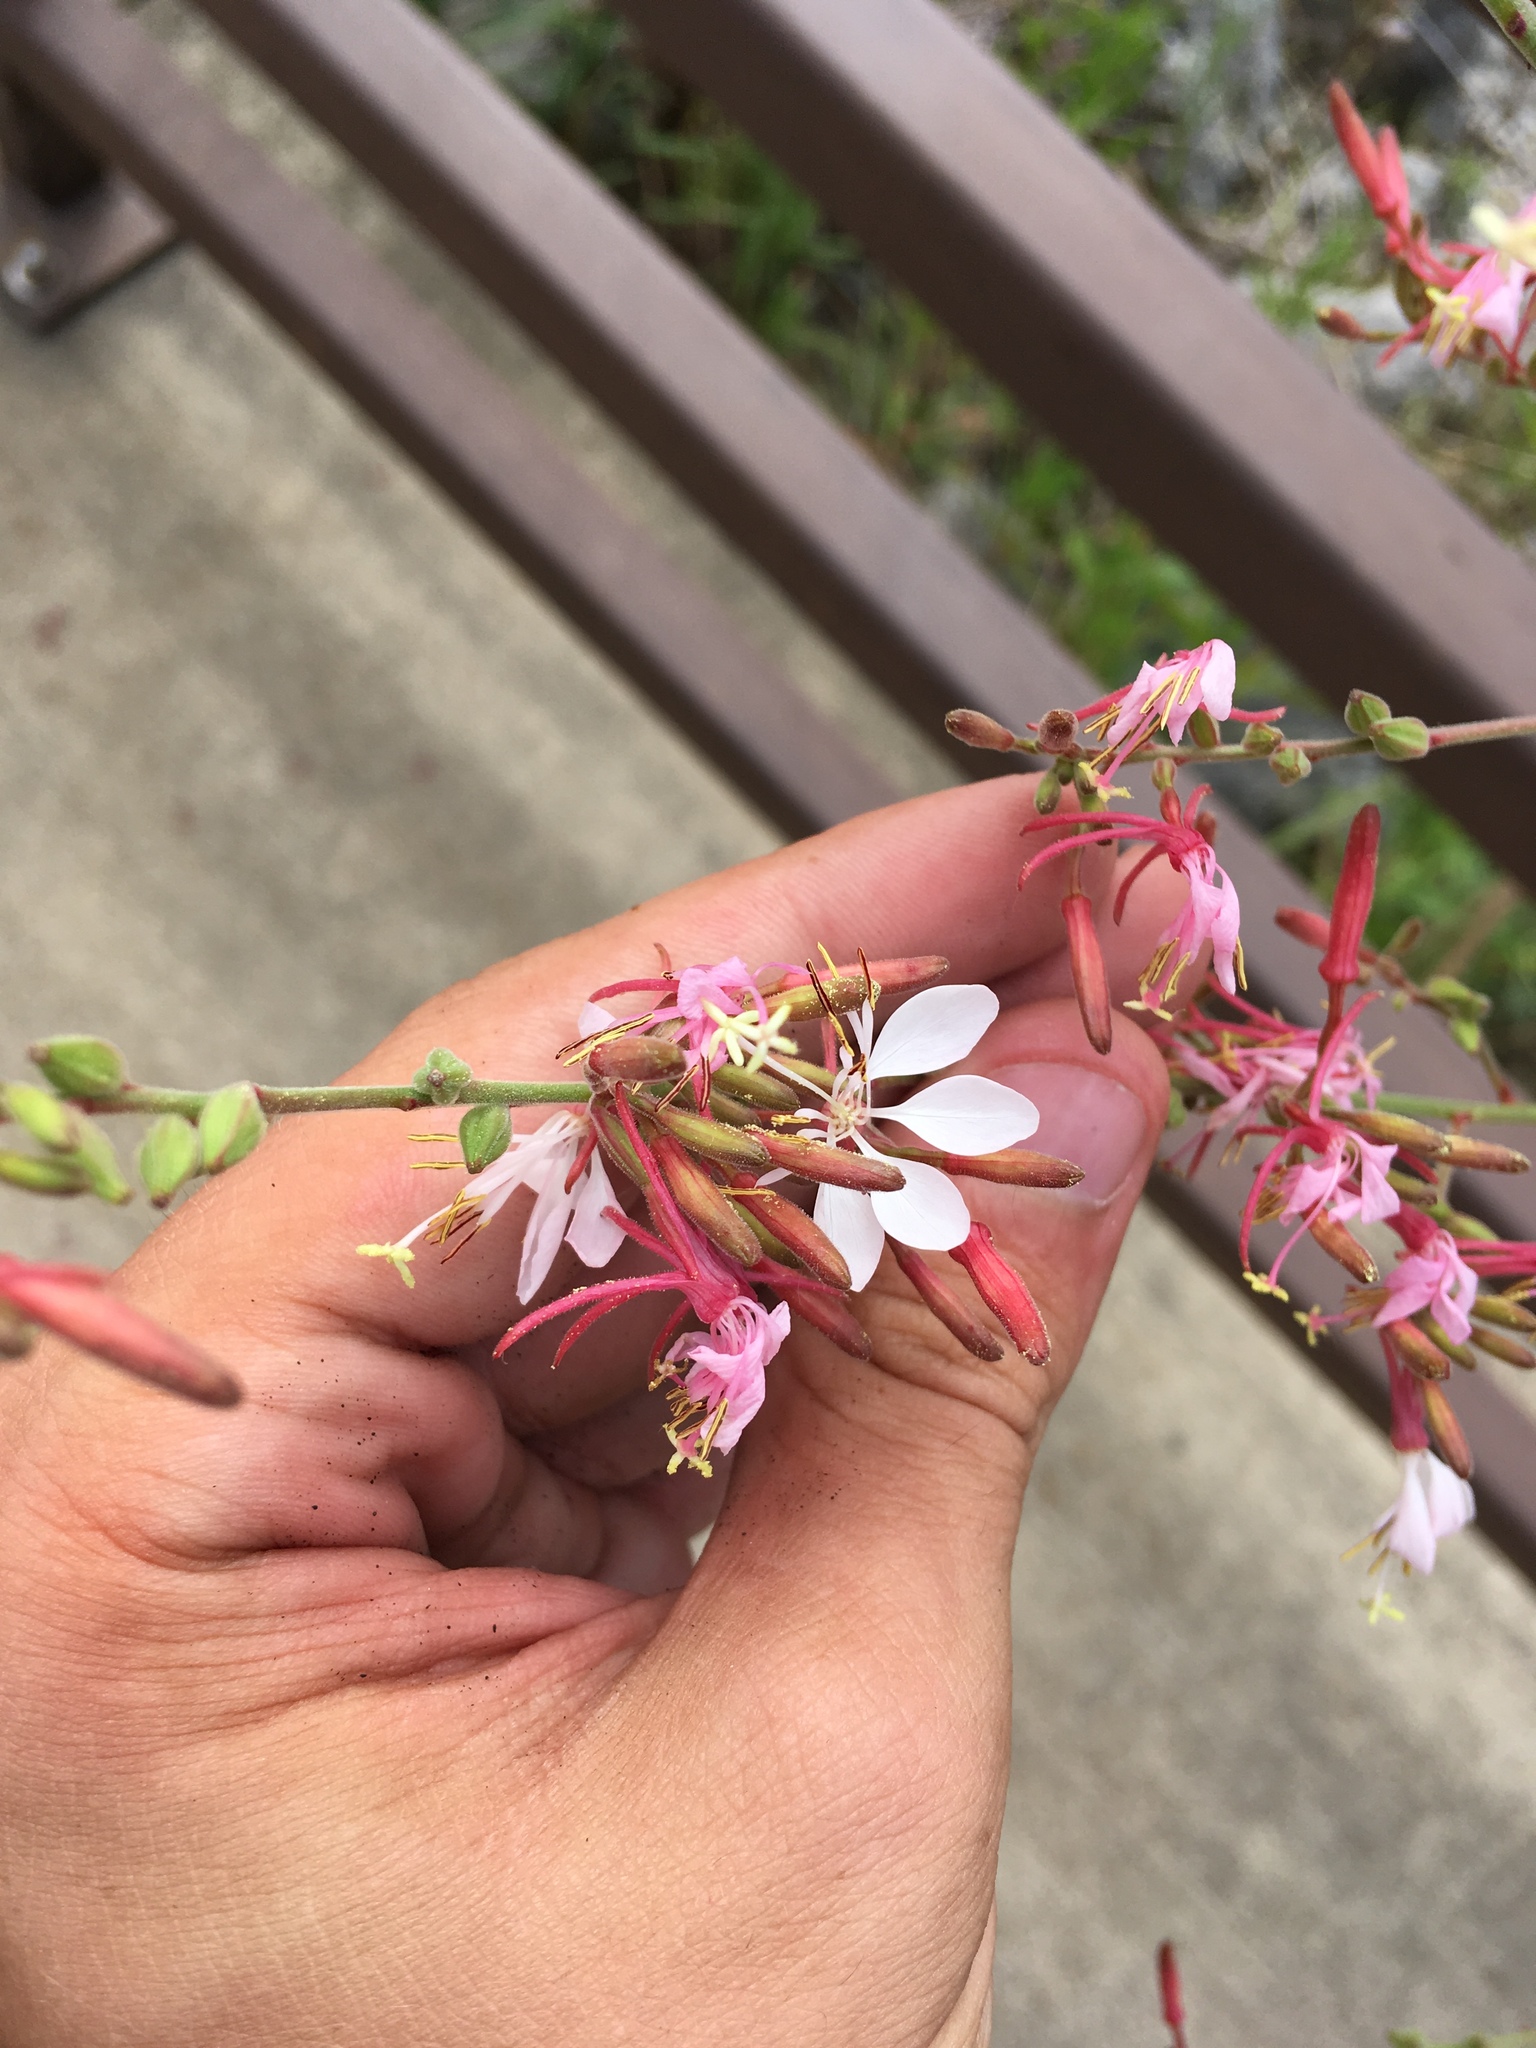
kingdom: Plantae
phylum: Tracheophyta
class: Magnoliopsida
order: Myrtales
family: Onagraceae
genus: Oenothera
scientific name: Oenothera gaura
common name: Biennial beeblossom
